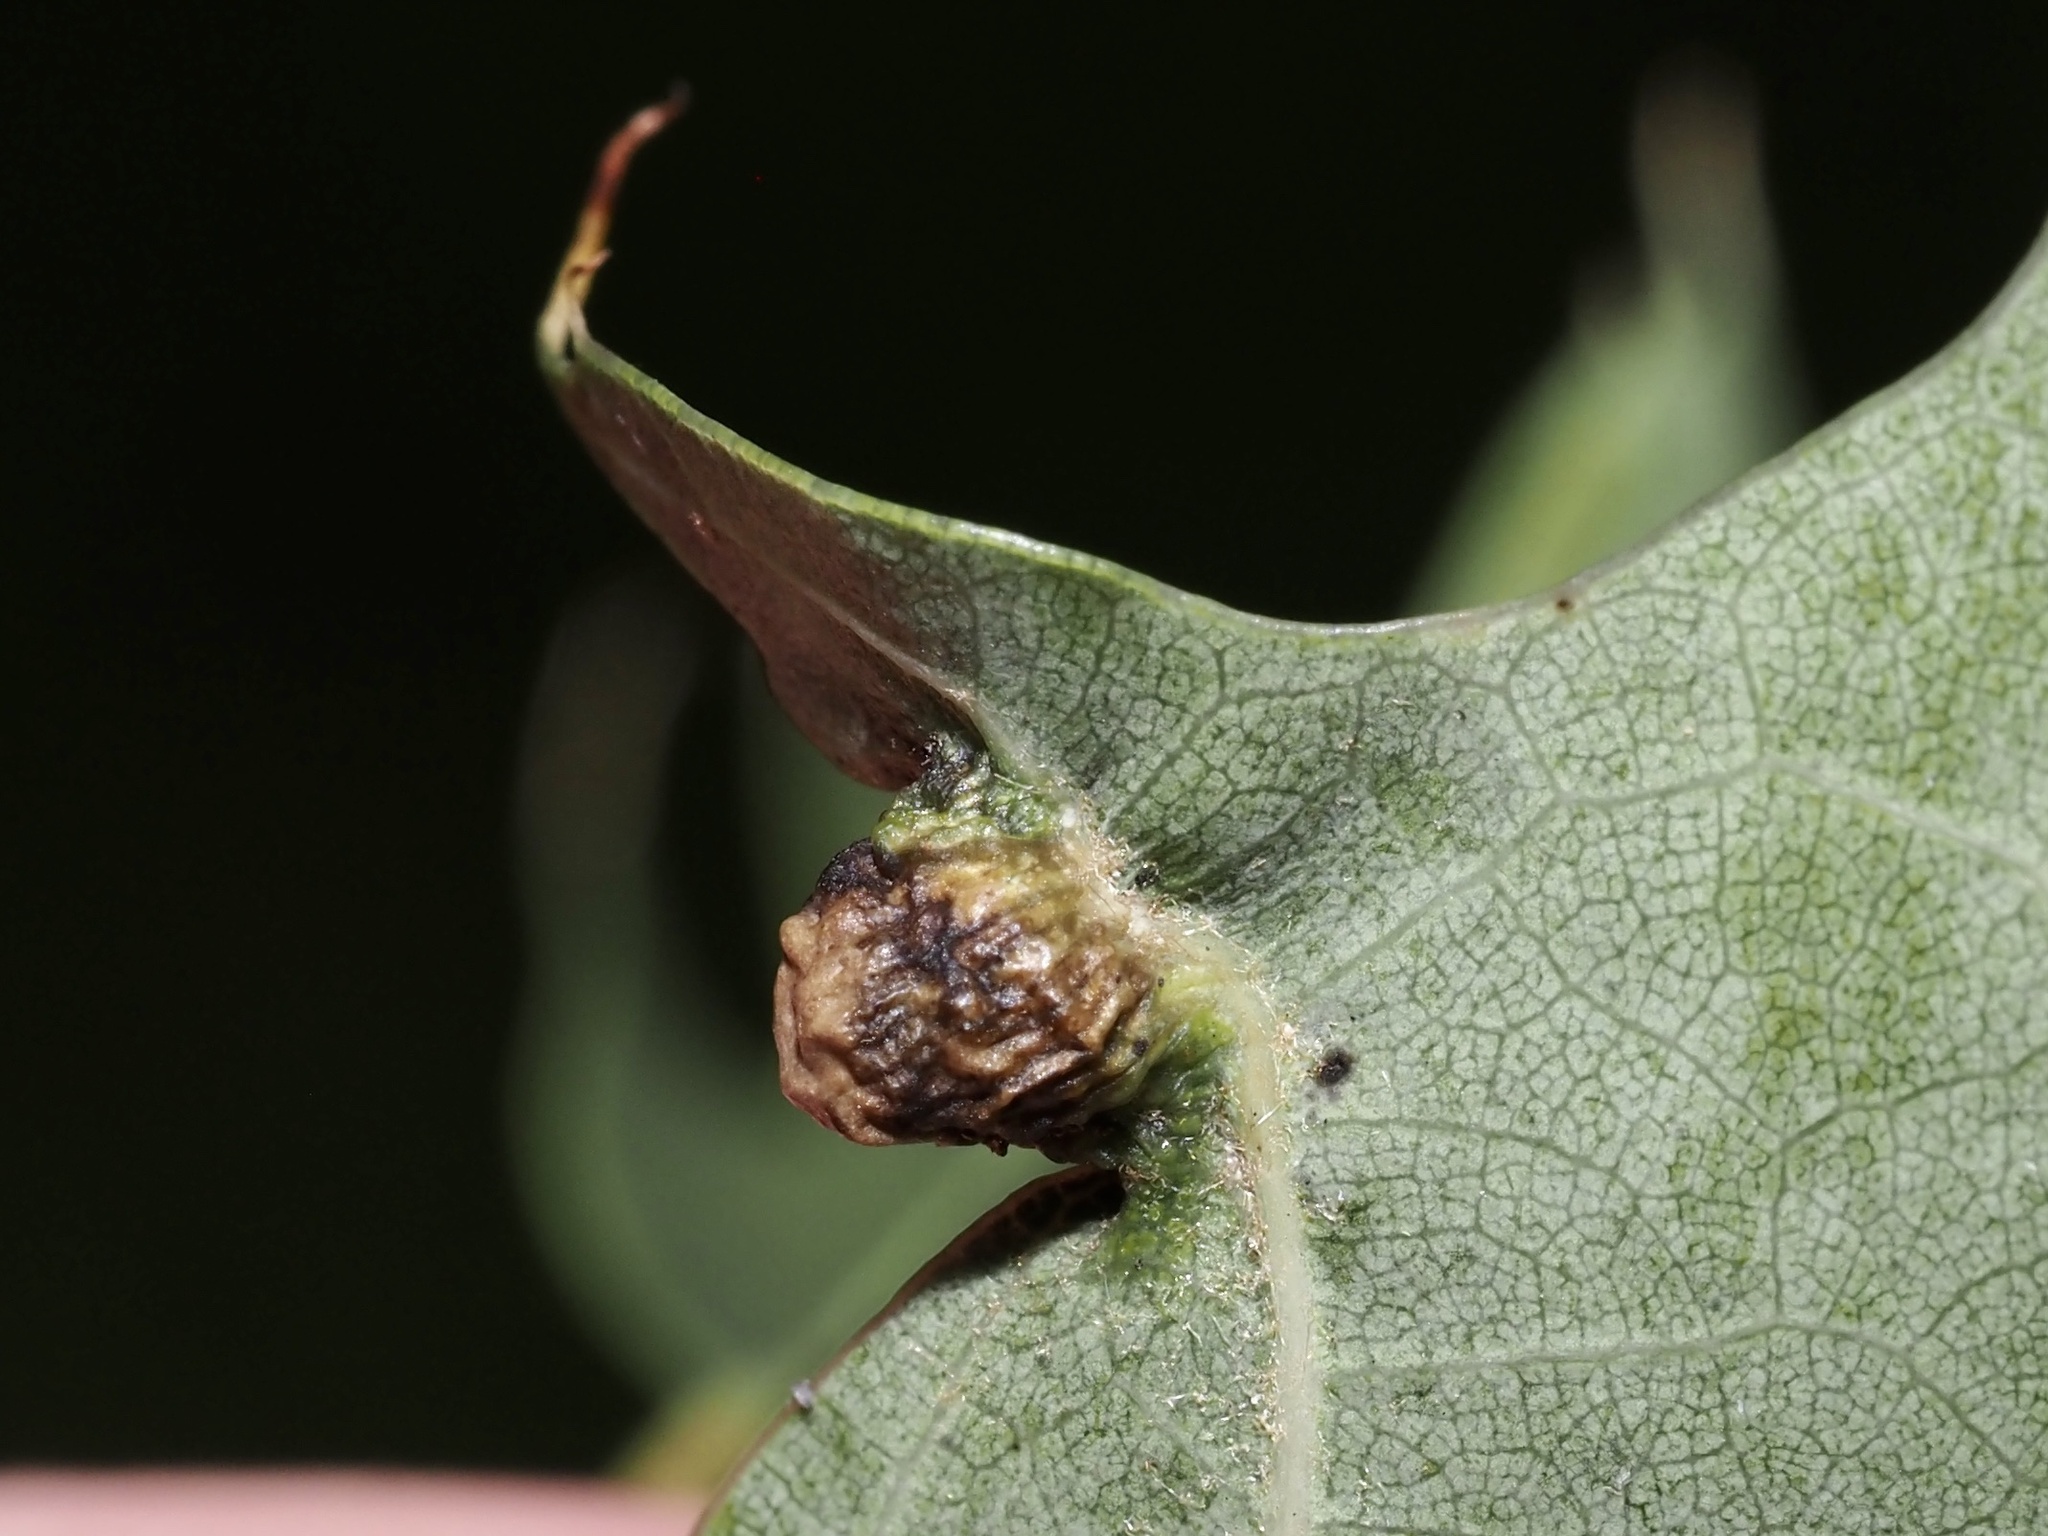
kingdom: Animalia
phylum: Arthropoda
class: Insecta
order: Diptera
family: Cecidomyiidae
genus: Macrodiplosis
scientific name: Macrodiplosis majalis
